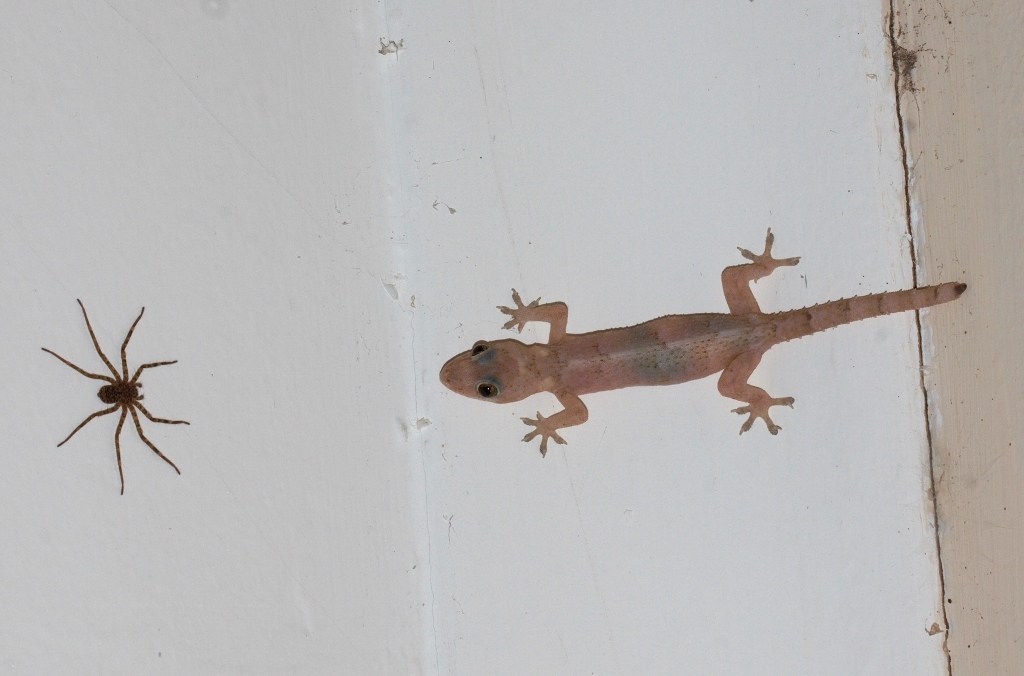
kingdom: Animalia
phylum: Chordata
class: Squamata
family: Gekkonidae
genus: Hemidactylus
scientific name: Hemidactylus mabouia
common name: House gecko
